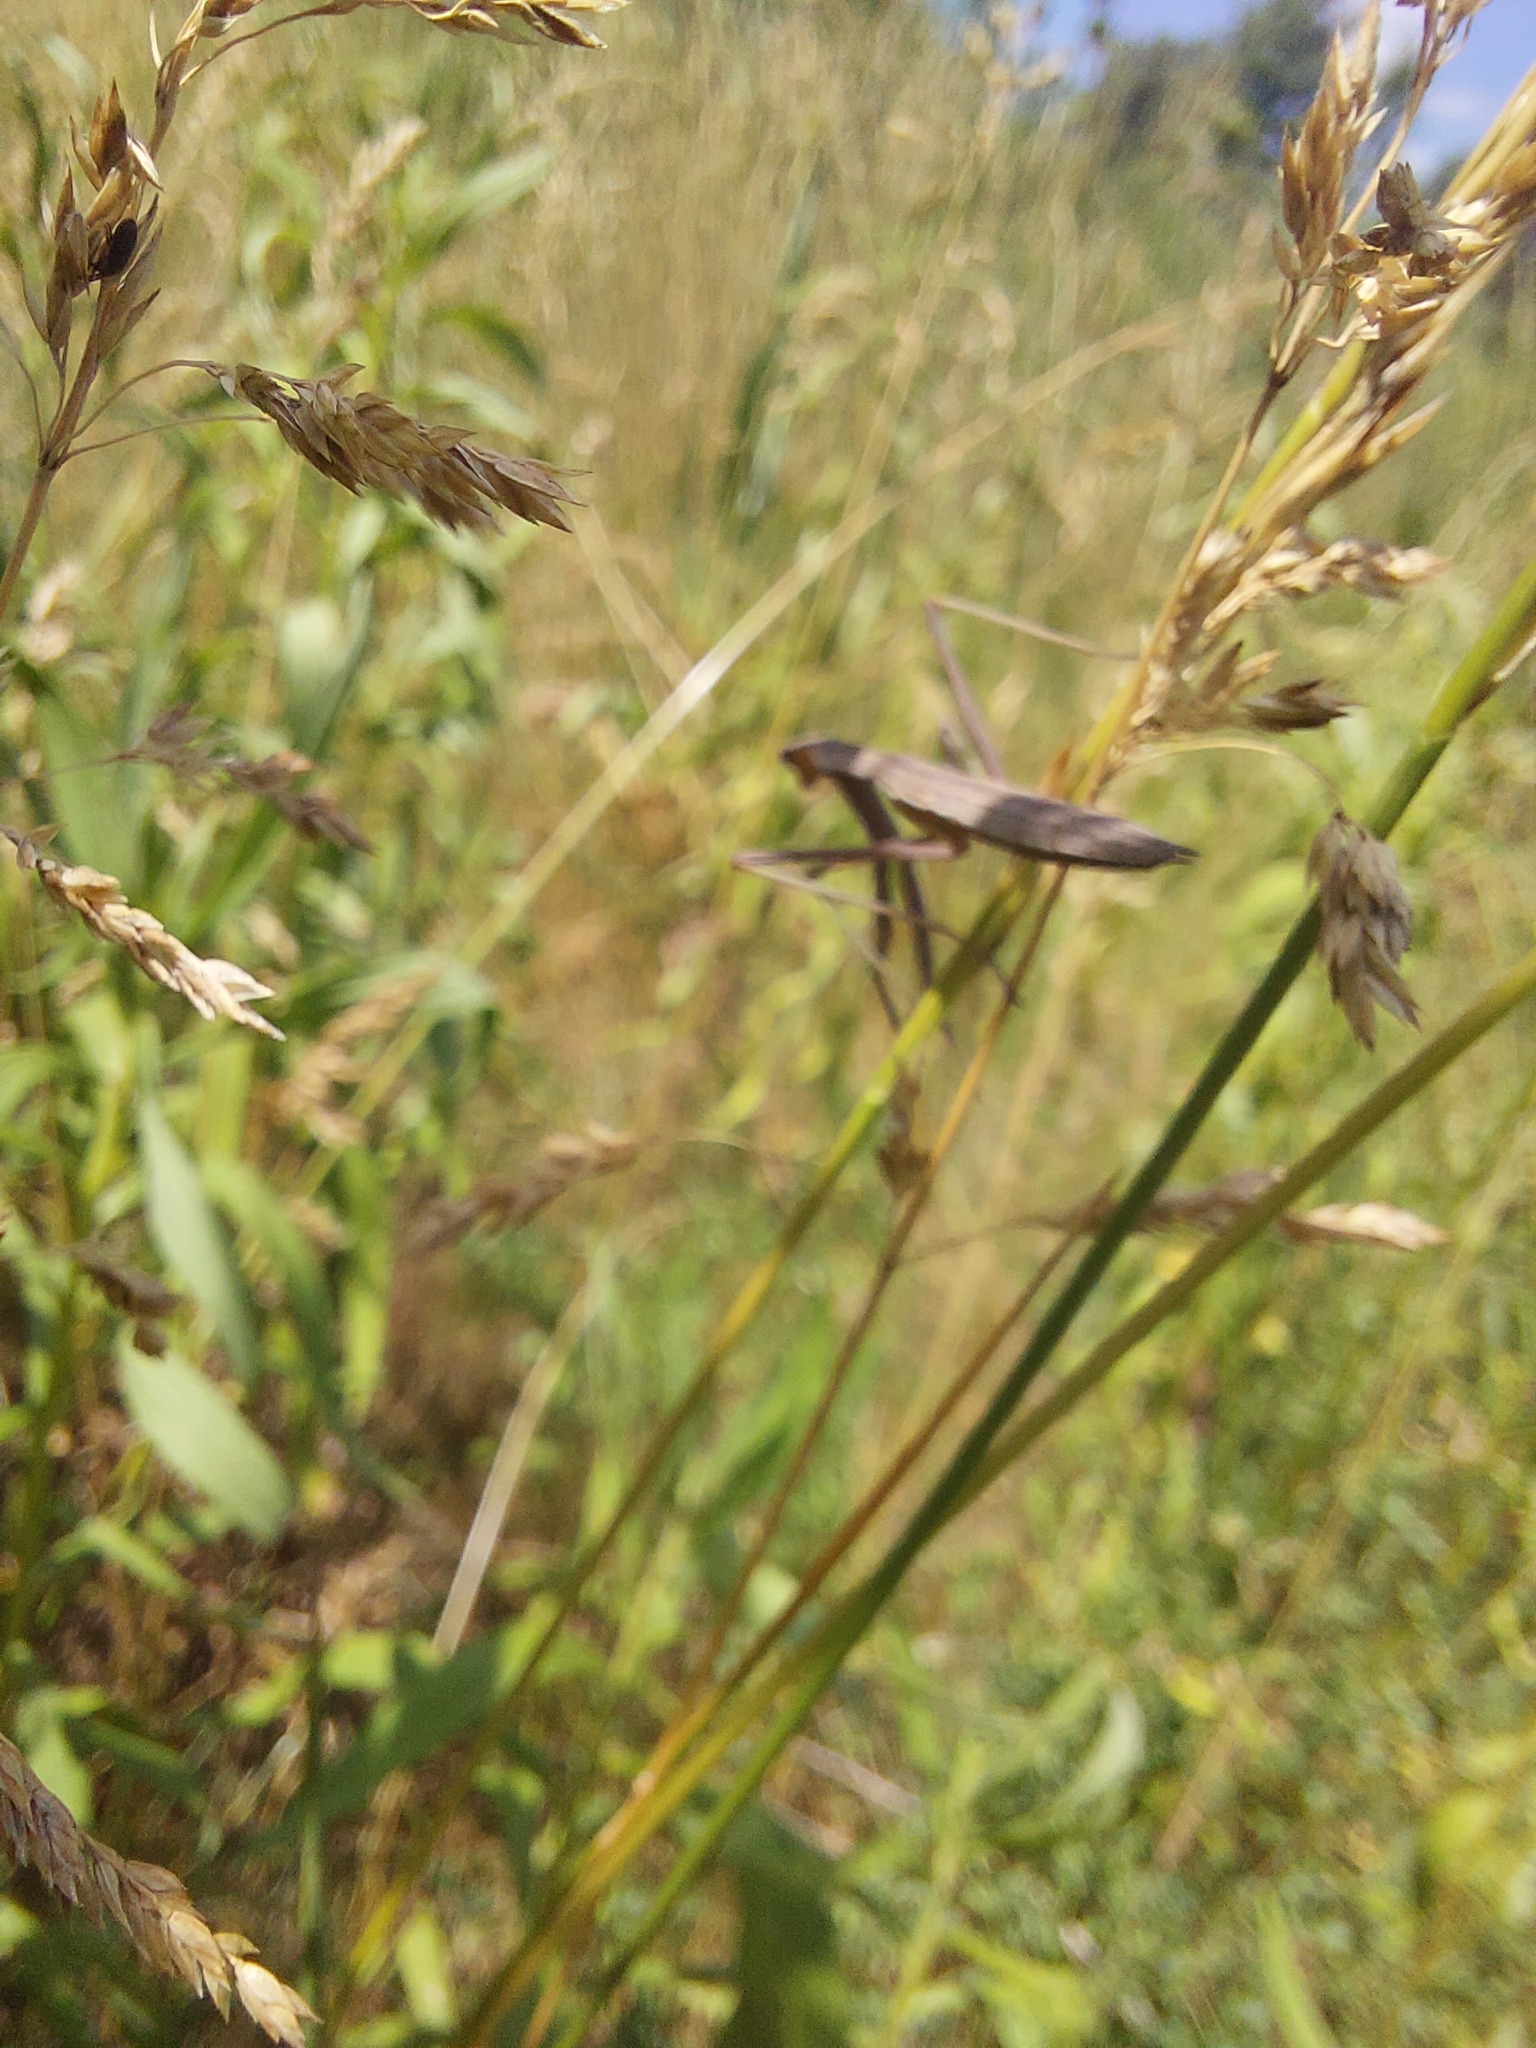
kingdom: Animalia
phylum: Arthropoda
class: Insecta
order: Mantodea
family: Mantidae
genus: Tenodera
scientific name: Tenodera sinensis
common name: Chinese mantis
